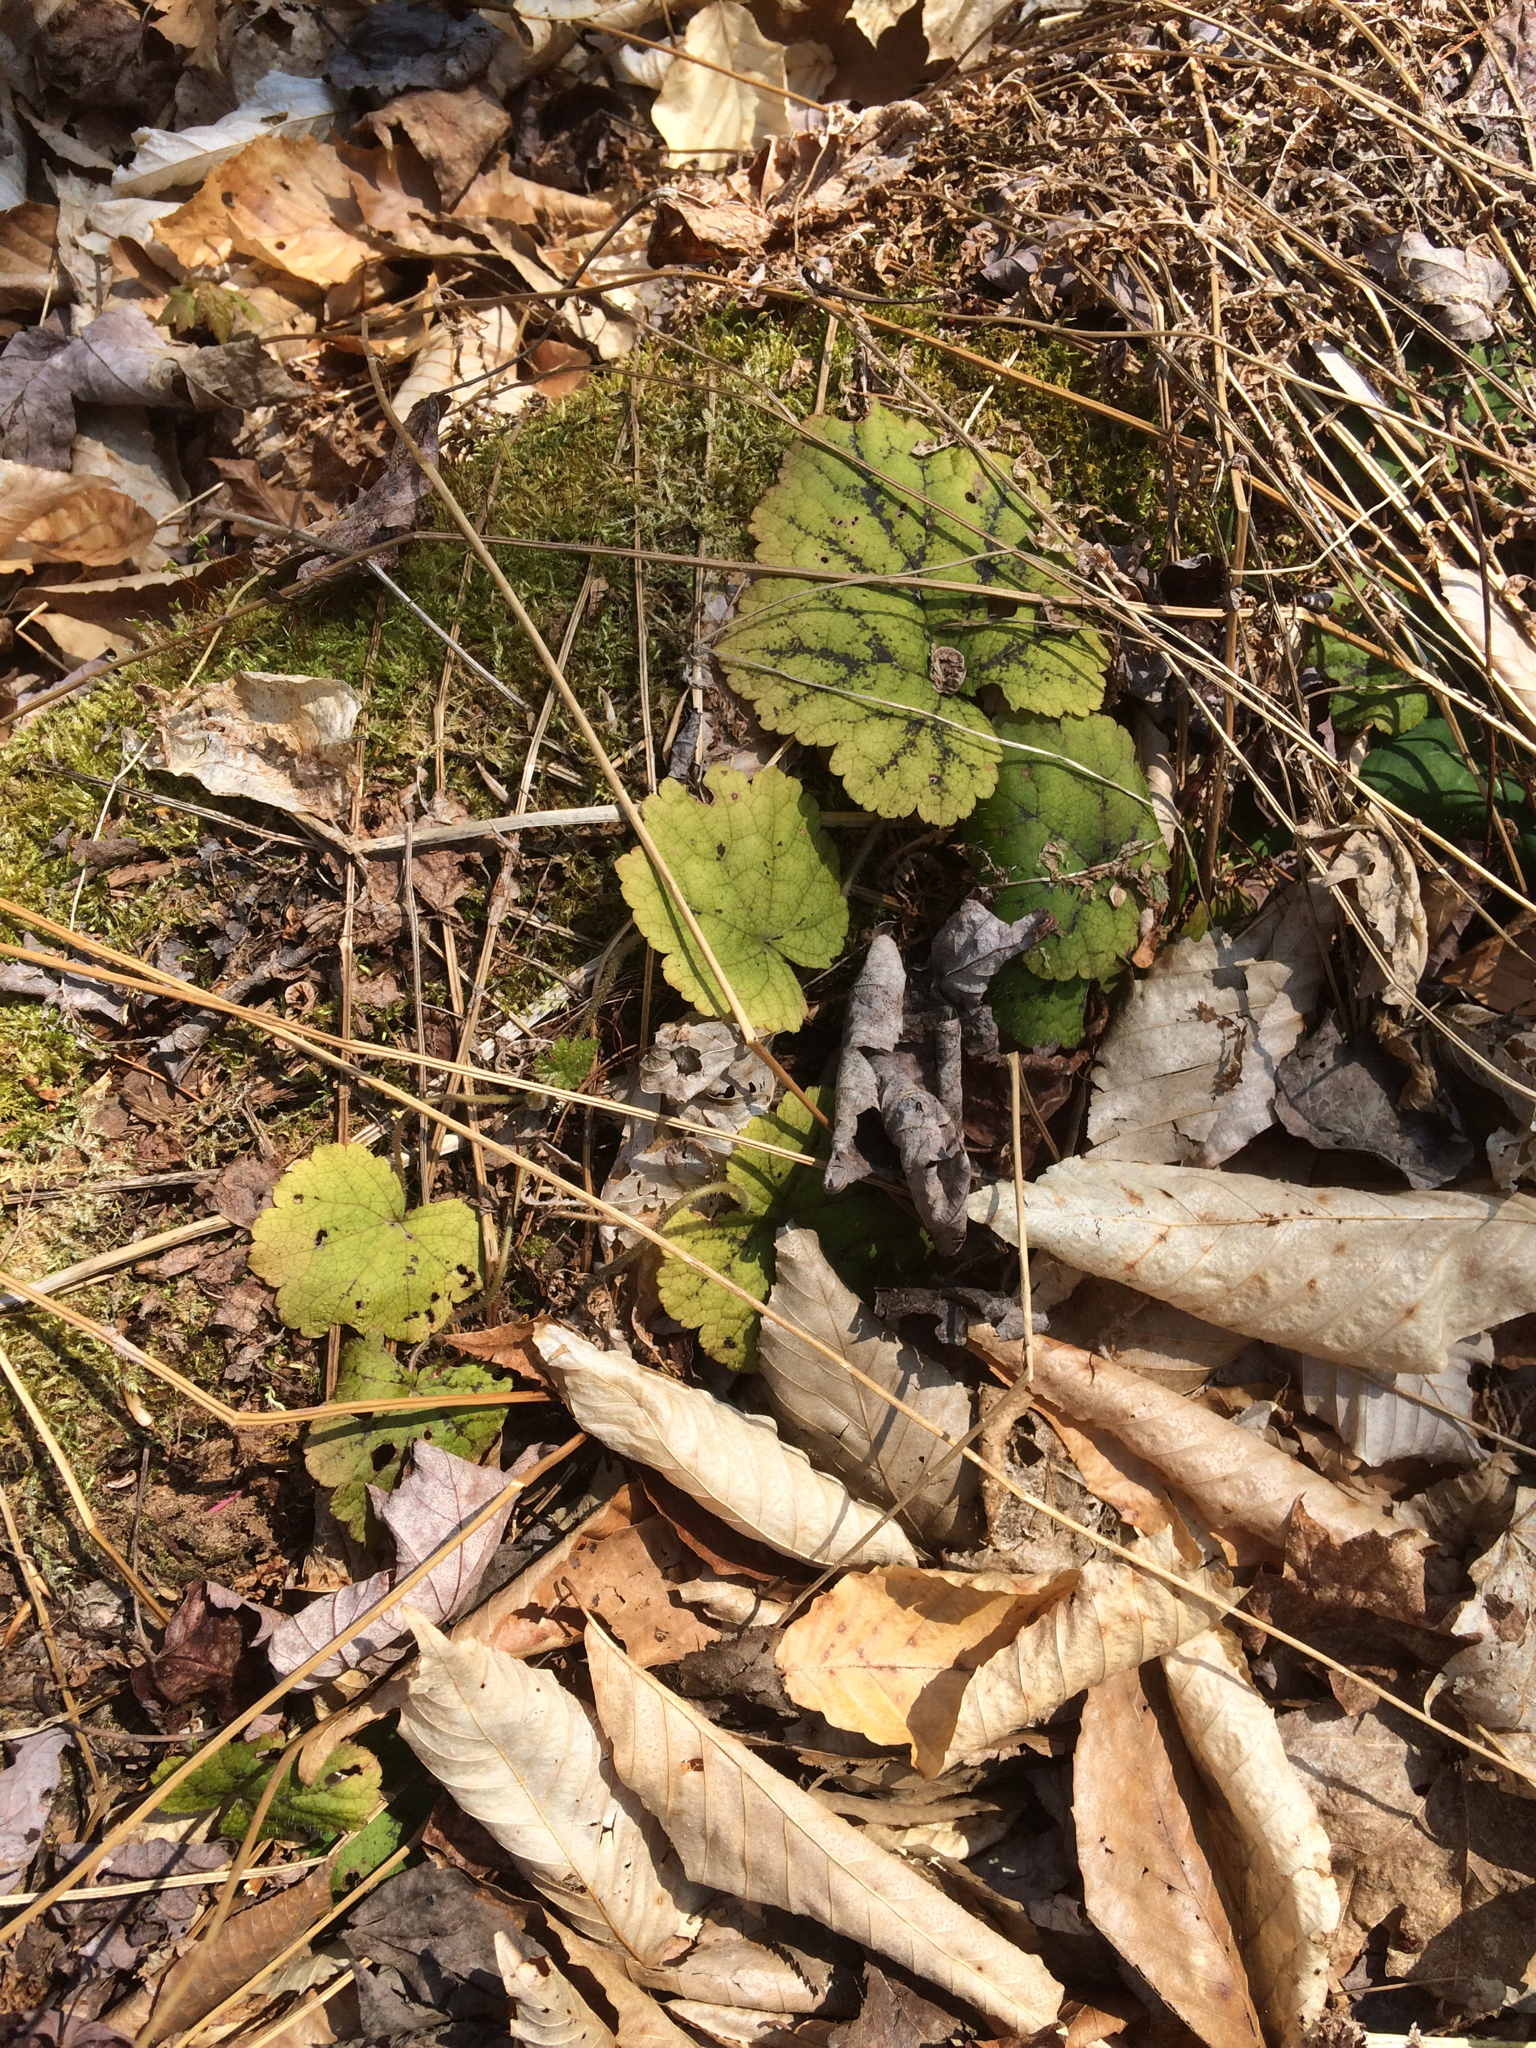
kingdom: Plantae
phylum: Tracheophyta
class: Magnoliopsida
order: Saxifragales
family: Saxifragaceae
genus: Tiarella
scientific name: Tiarella stolonifera
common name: Stoloniferous foamflower
